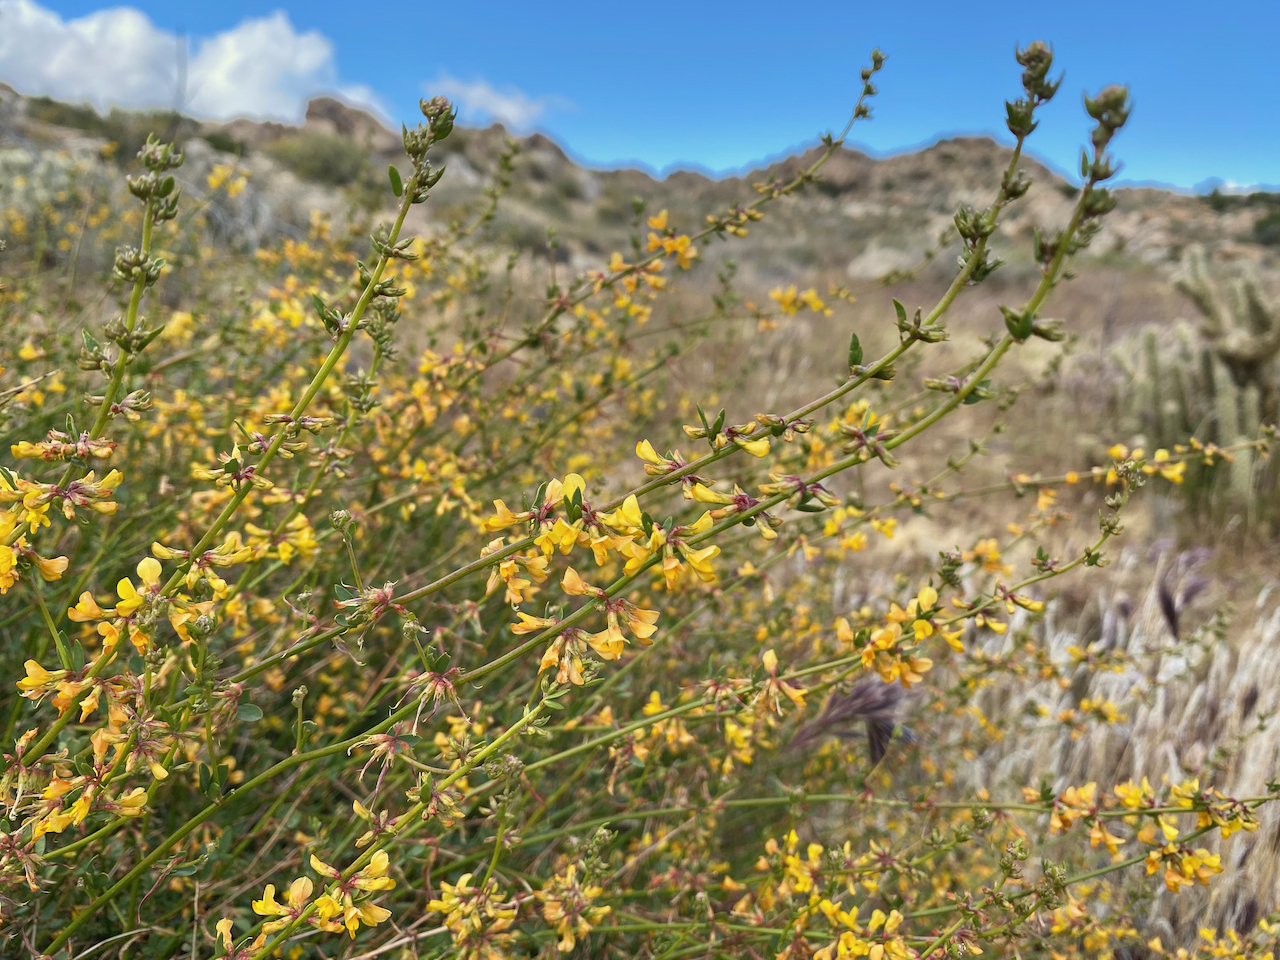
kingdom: Plantae
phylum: Tracheophyta
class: Magnoliopsida
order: Fabales
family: Fabaceae
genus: Acmispon
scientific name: Acmispon glaber
